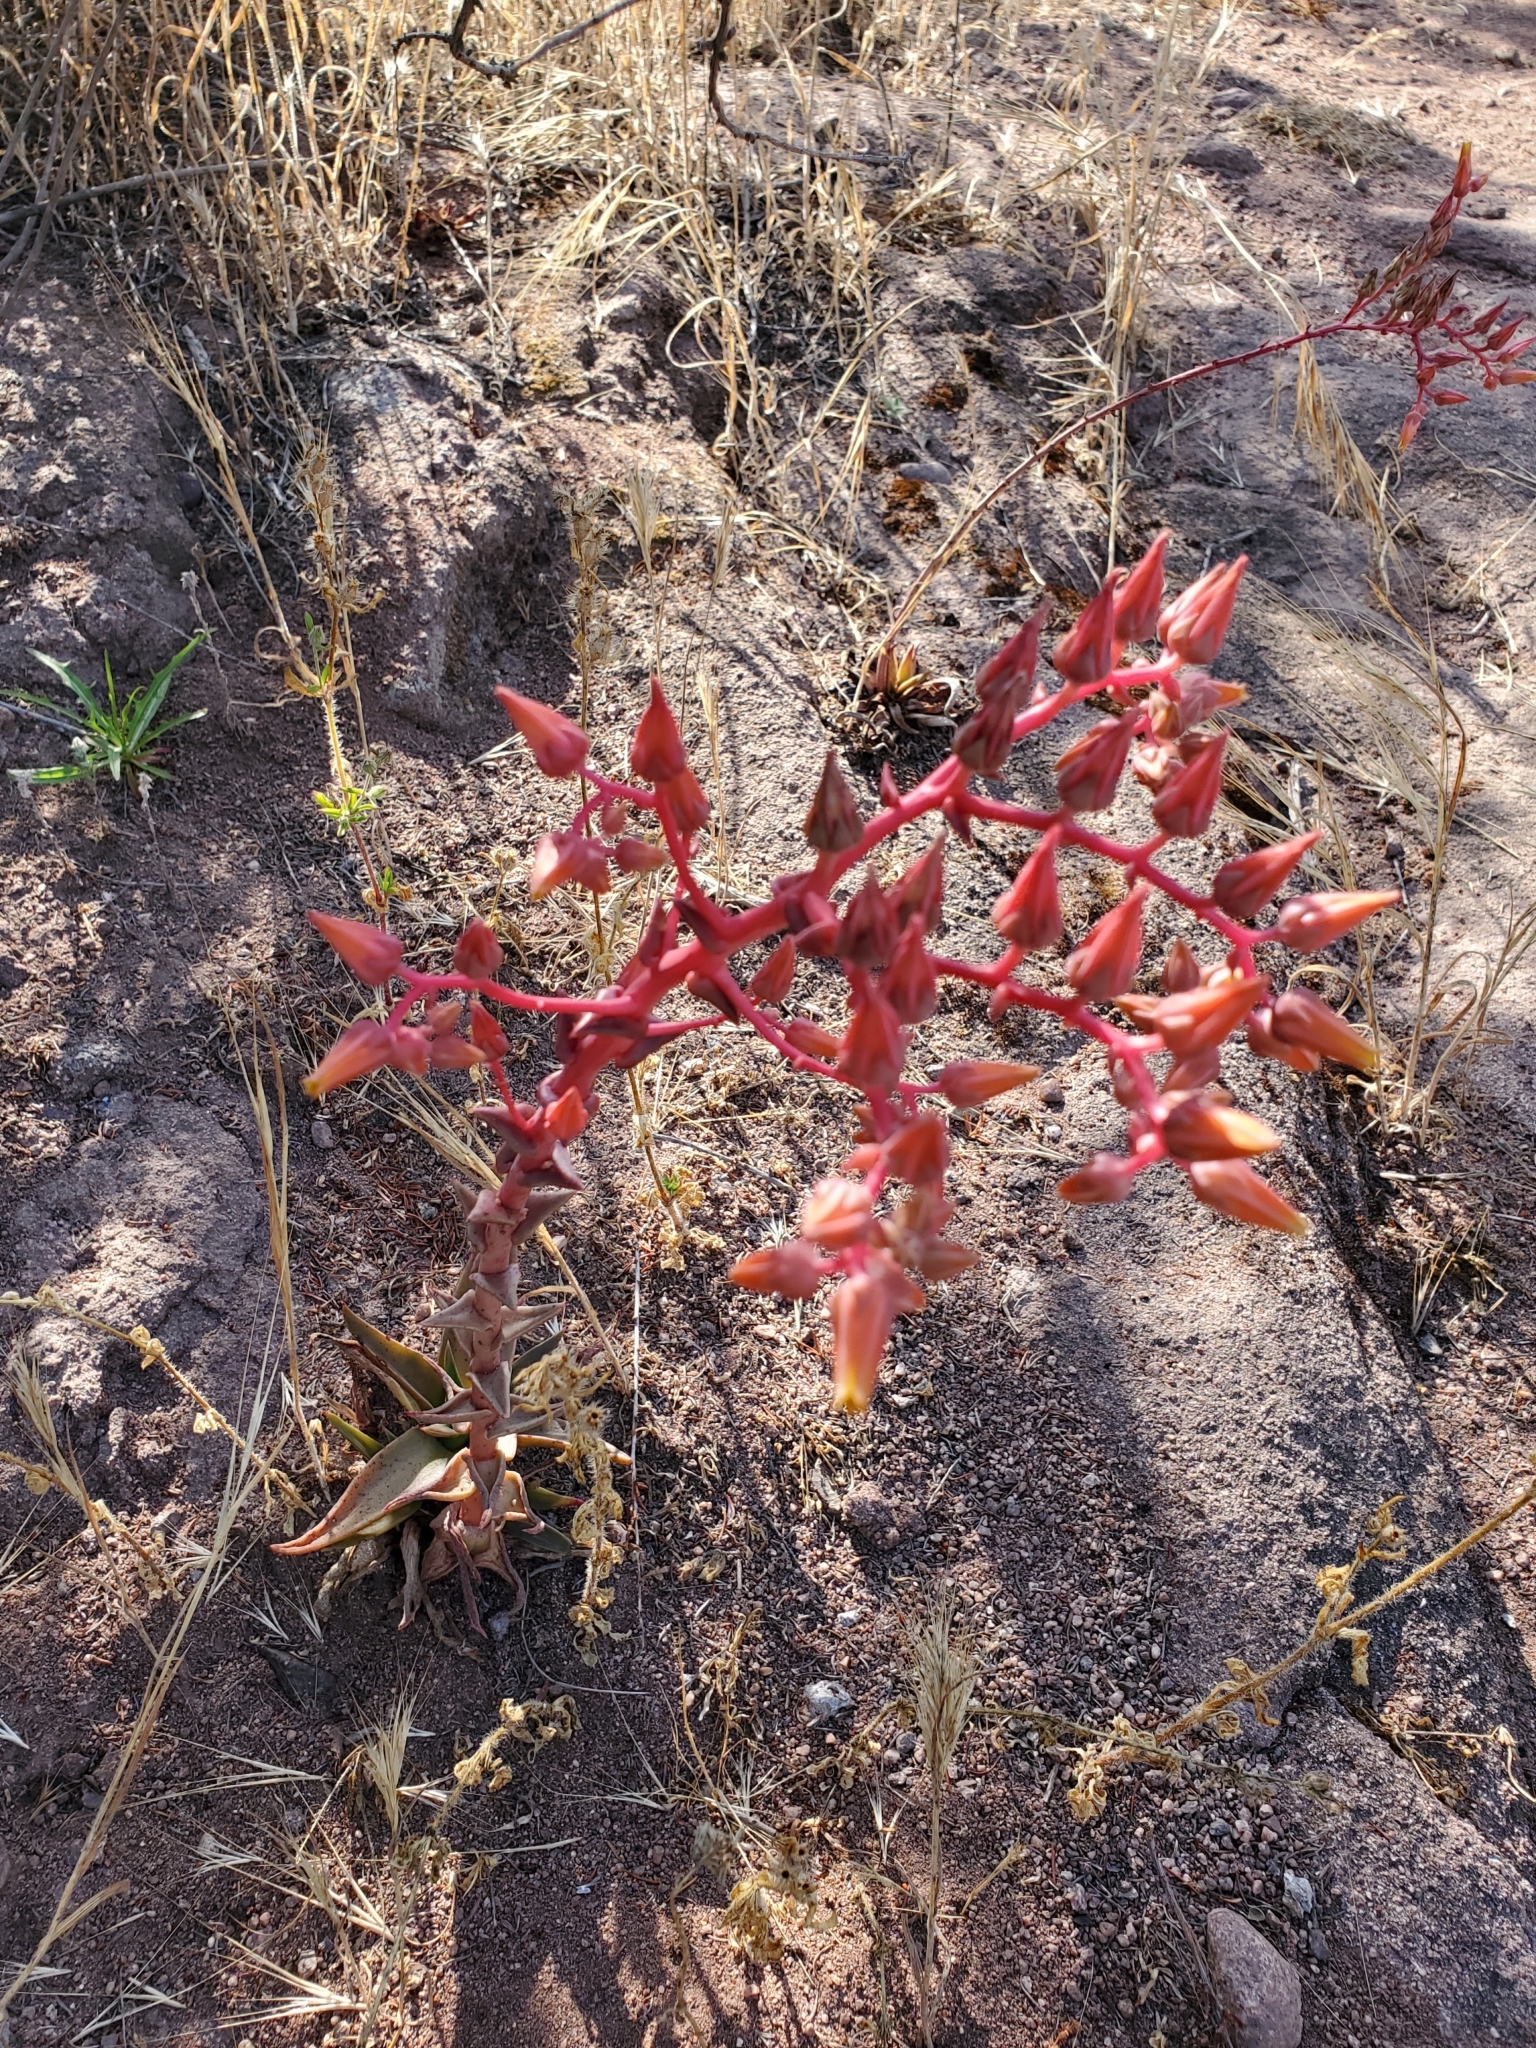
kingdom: Plantae
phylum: Tracheophyta
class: Magnoliopsida
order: Saxifragales
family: Crassulaceae
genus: Dudleya
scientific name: Dudleya lanceolata
